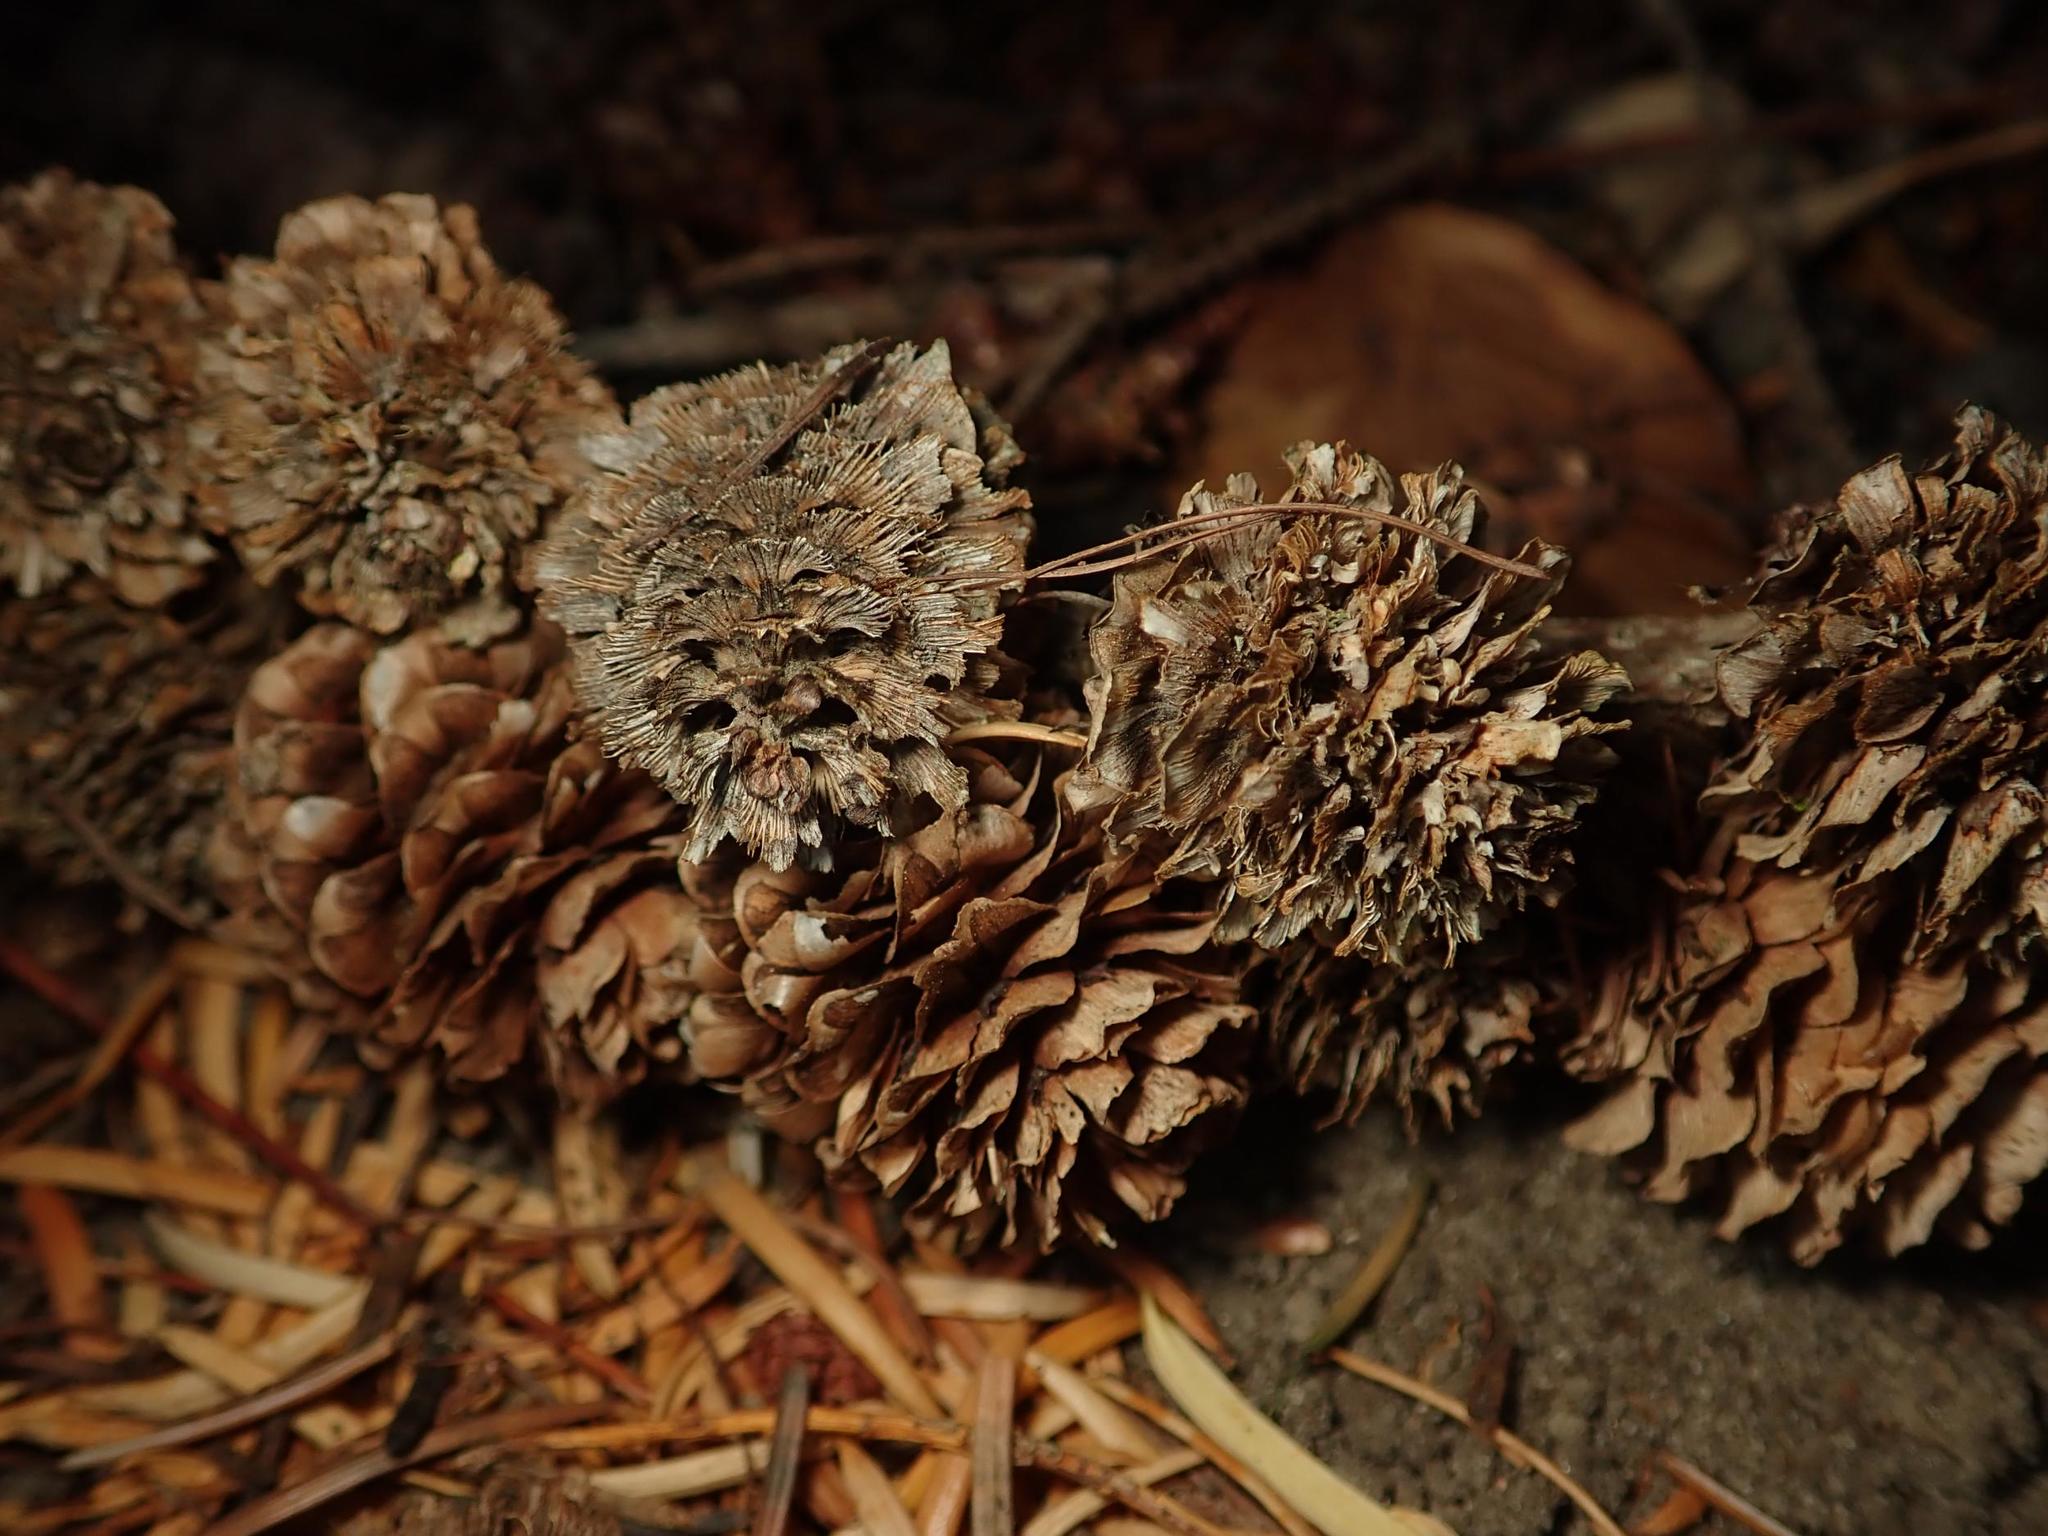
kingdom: Plantae
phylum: Tracheophyta
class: Pinopsida
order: Pinales
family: Pinaceae
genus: Larix
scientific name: Larix decidua
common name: European larch
